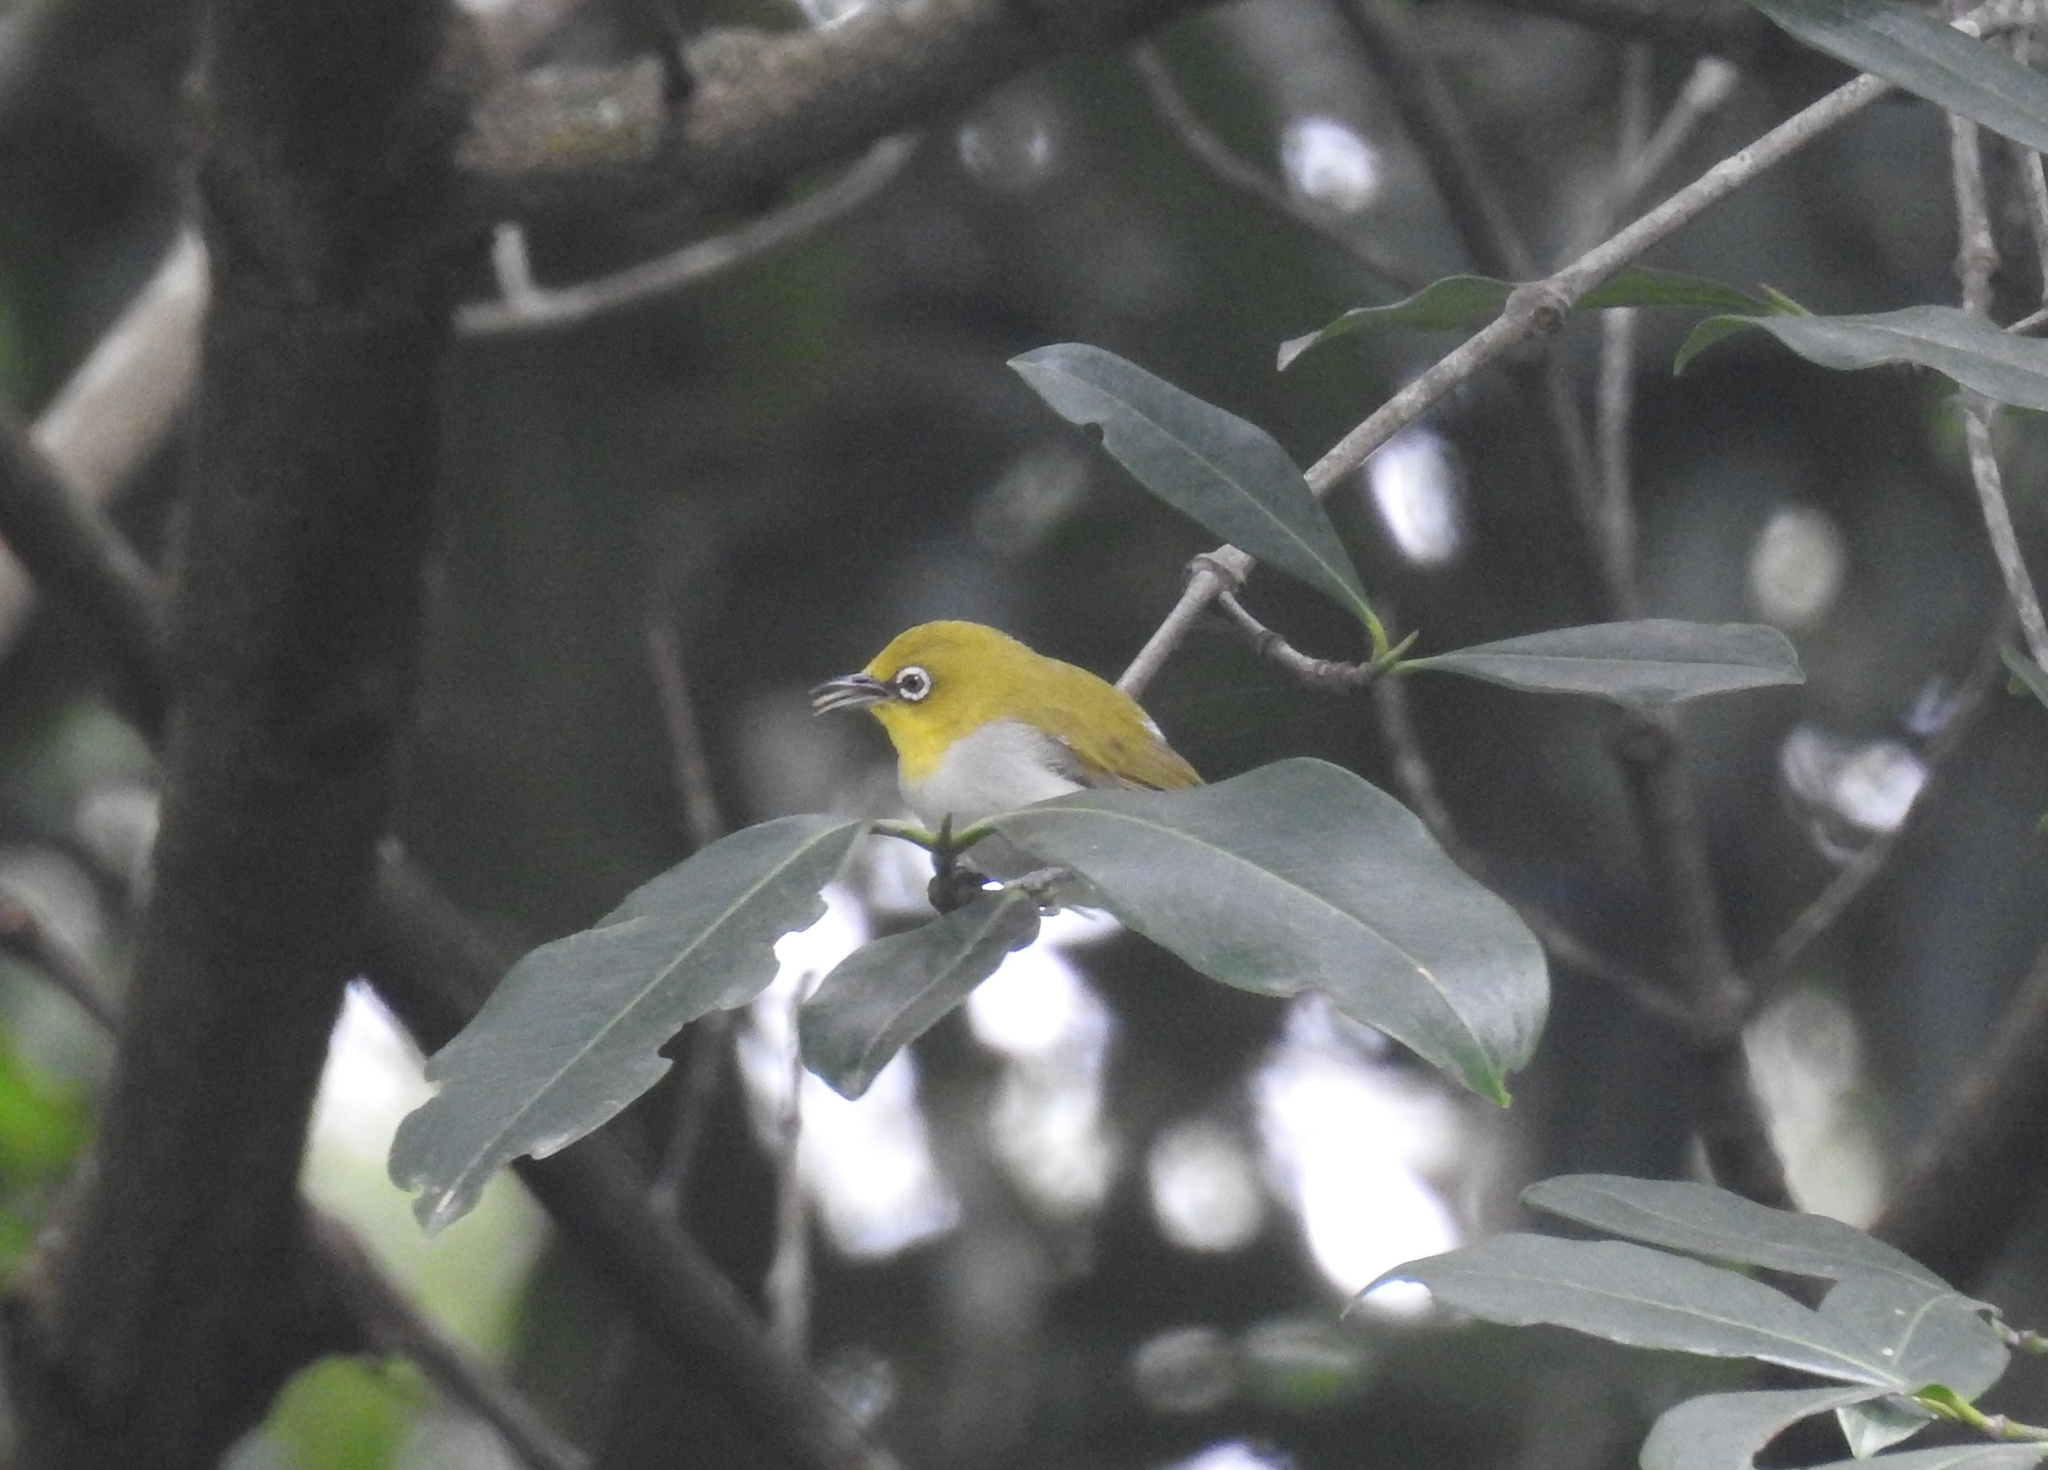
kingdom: Animalia
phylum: Chordata
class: Aves
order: Passeriformes
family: Zosteropidae
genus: Zosterops
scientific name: Zosterops palpebrosus
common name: Oriental white-eye
